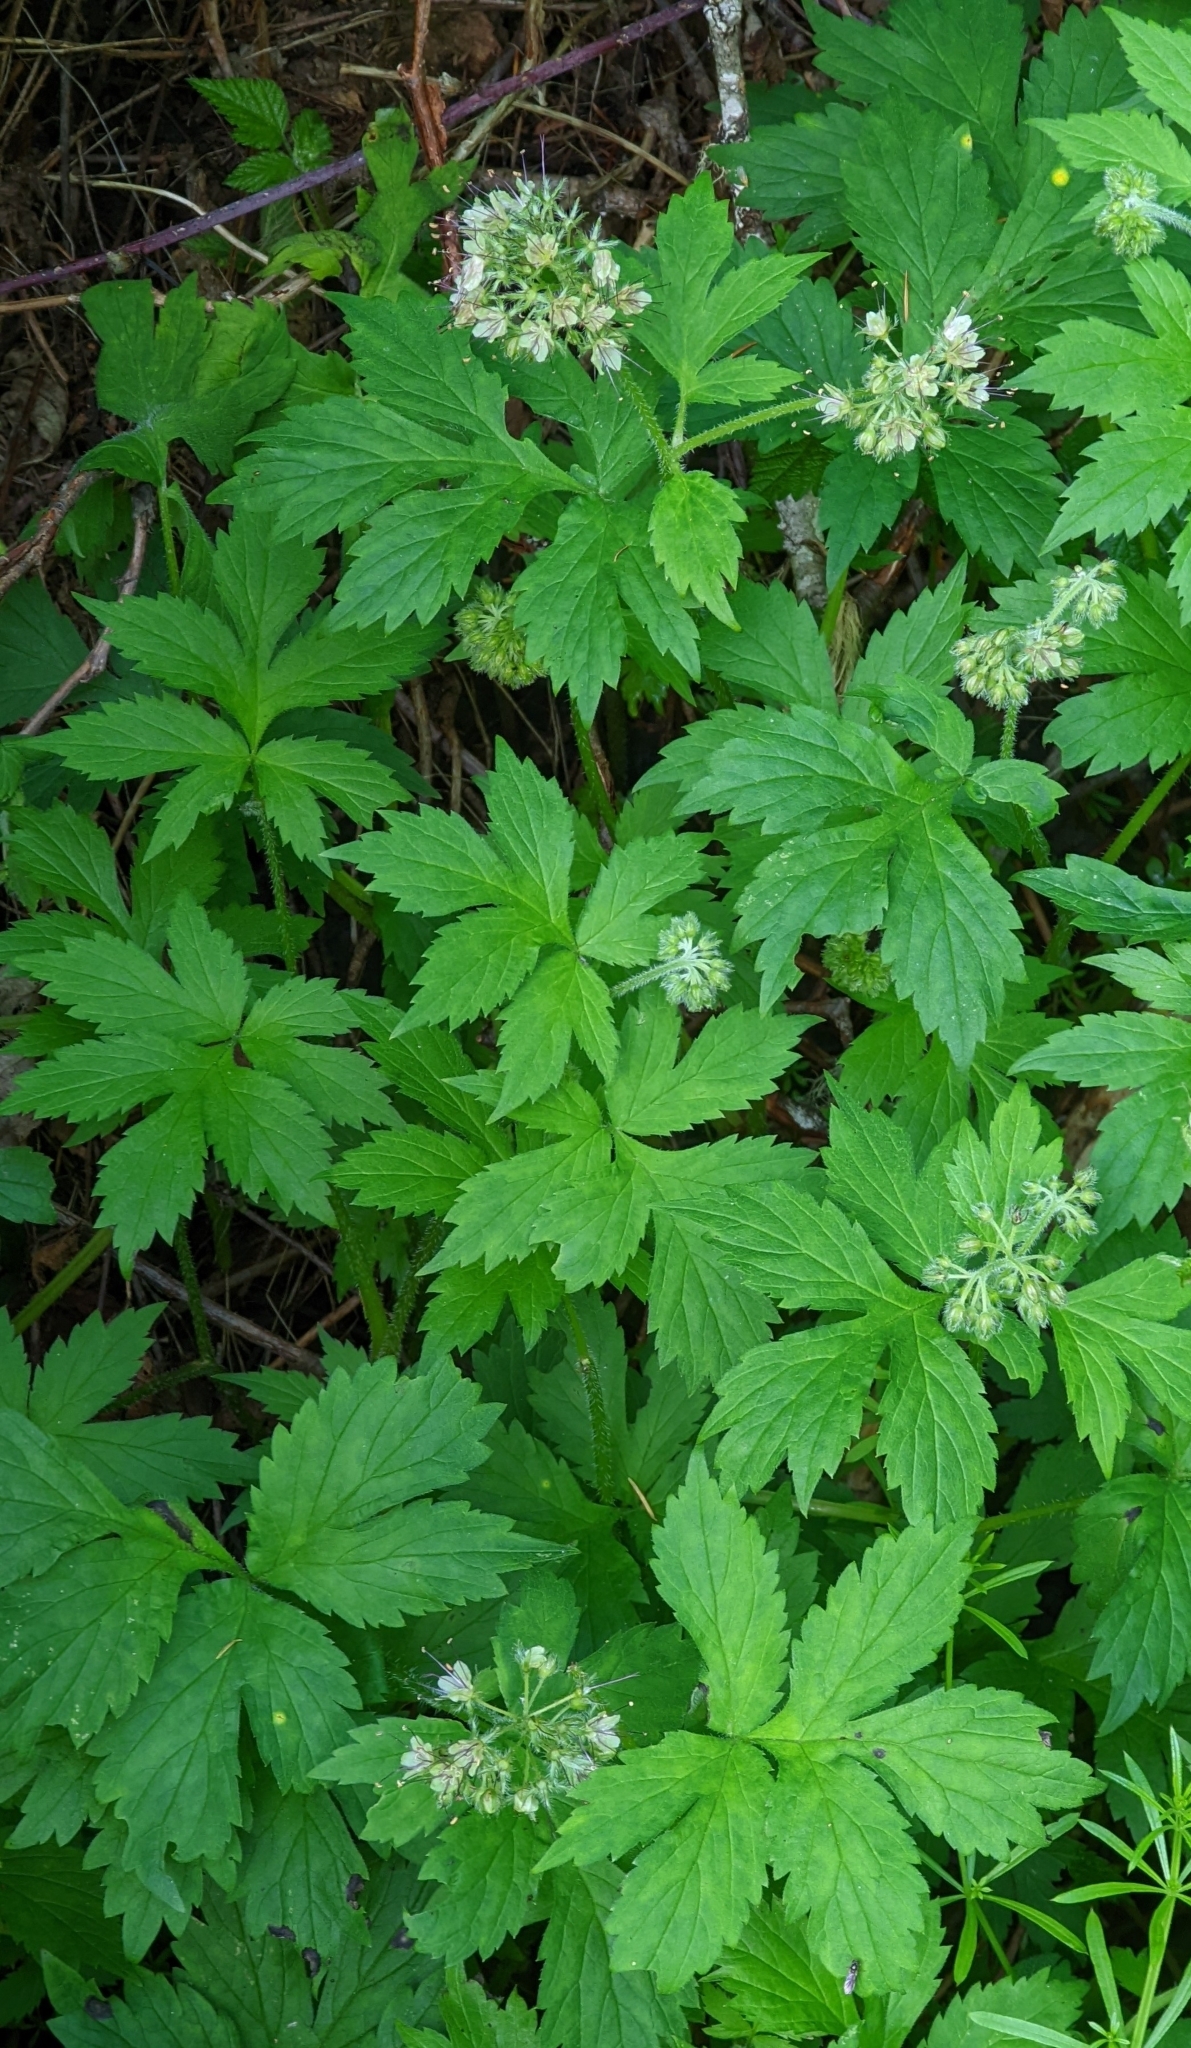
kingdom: Plantae
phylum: Tracheophyta
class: Magnoliopsida
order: Boraginales
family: Hydrophyllaceae
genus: Hydrophyllum
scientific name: Hydrophyllum tenuipes
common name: Pacific waterleaf
